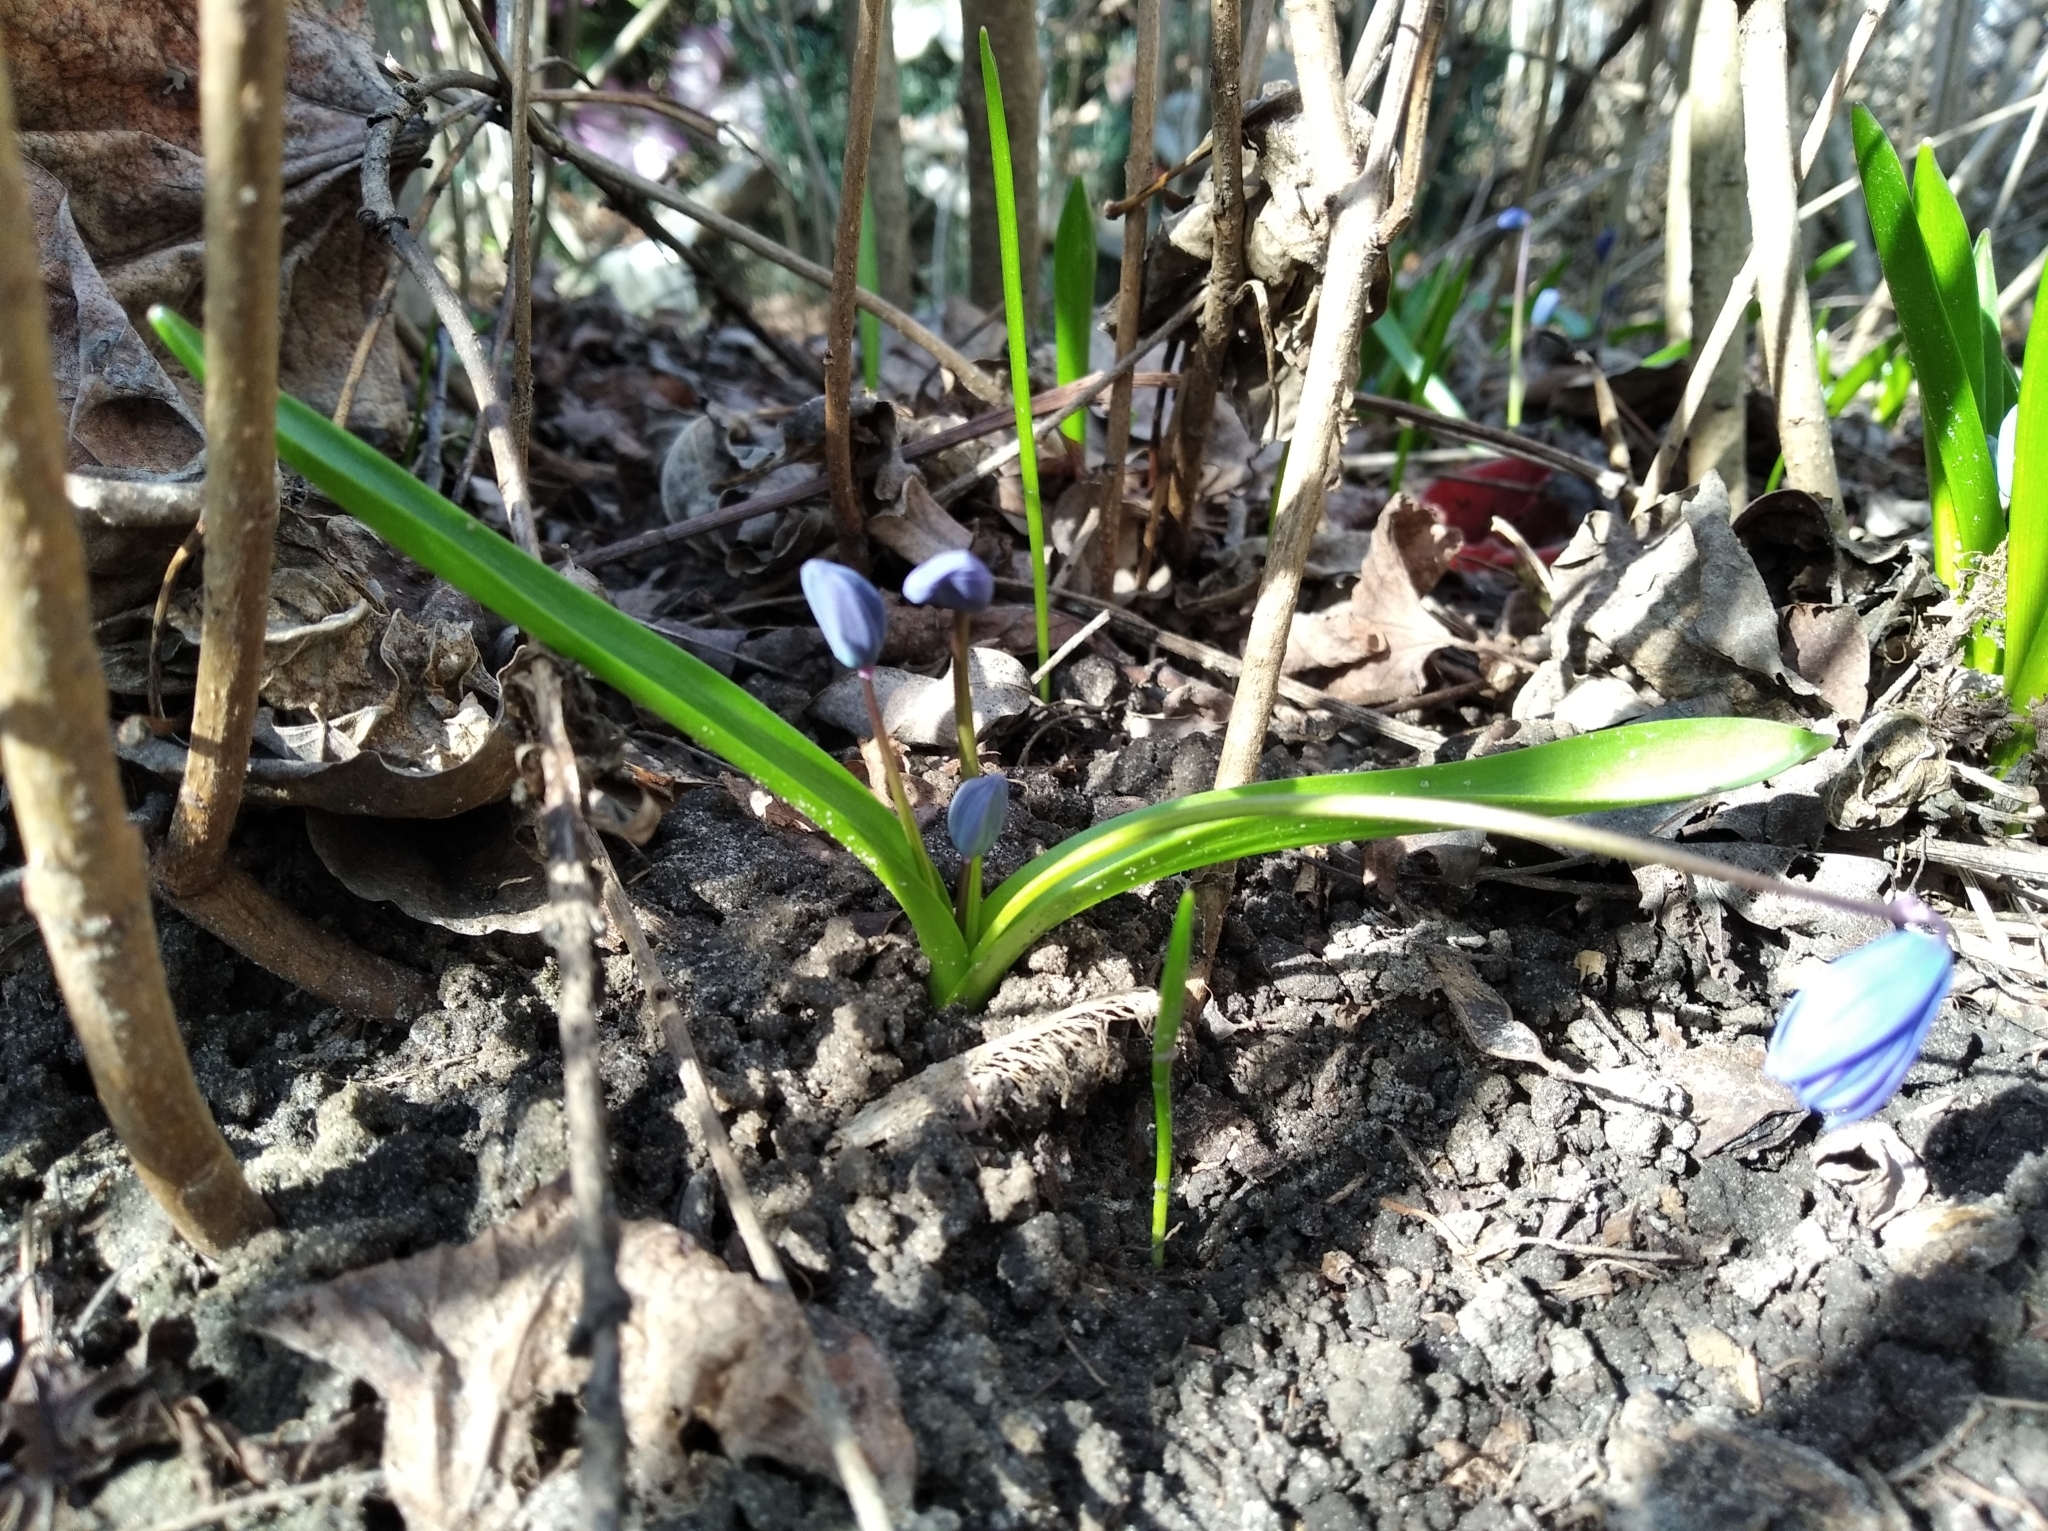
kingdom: Plantae
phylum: Tracheophyta
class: Liliopsida
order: Asparagales
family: Asparagaceae
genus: Scilla
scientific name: Scilla siberica
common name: Siberian squill
